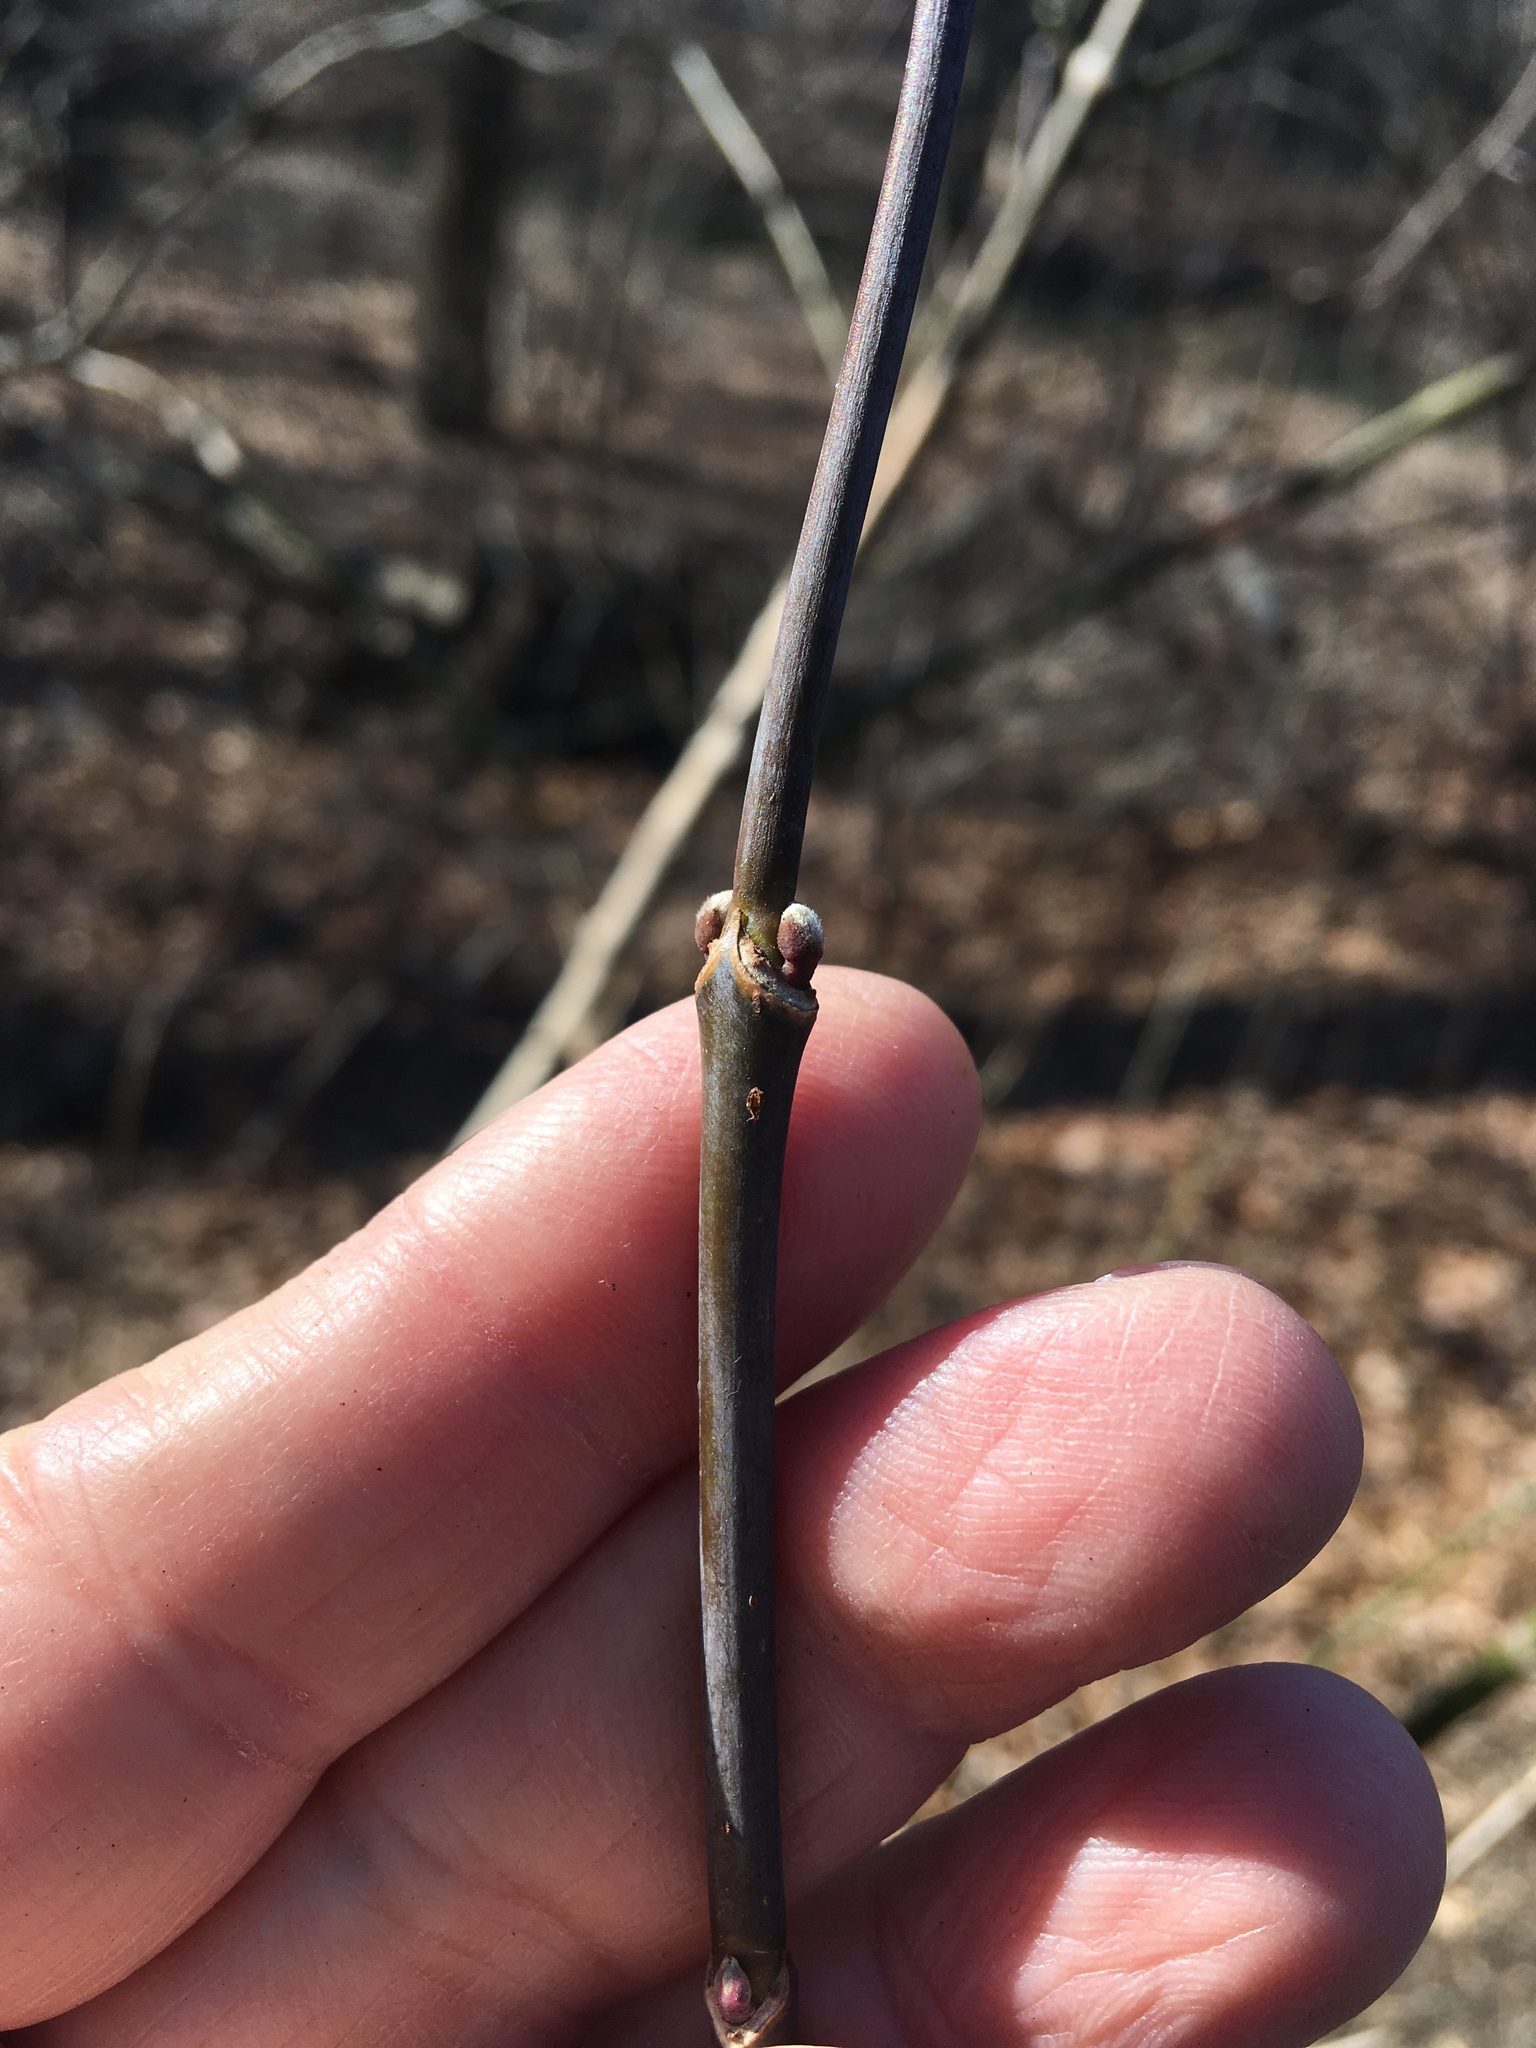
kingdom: Plantae
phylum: Tracheophyta
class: Magnoliopsida
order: Sapindales
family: Sapindaceae
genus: Acer
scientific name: Acer negundo
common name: Ashleaf maple
